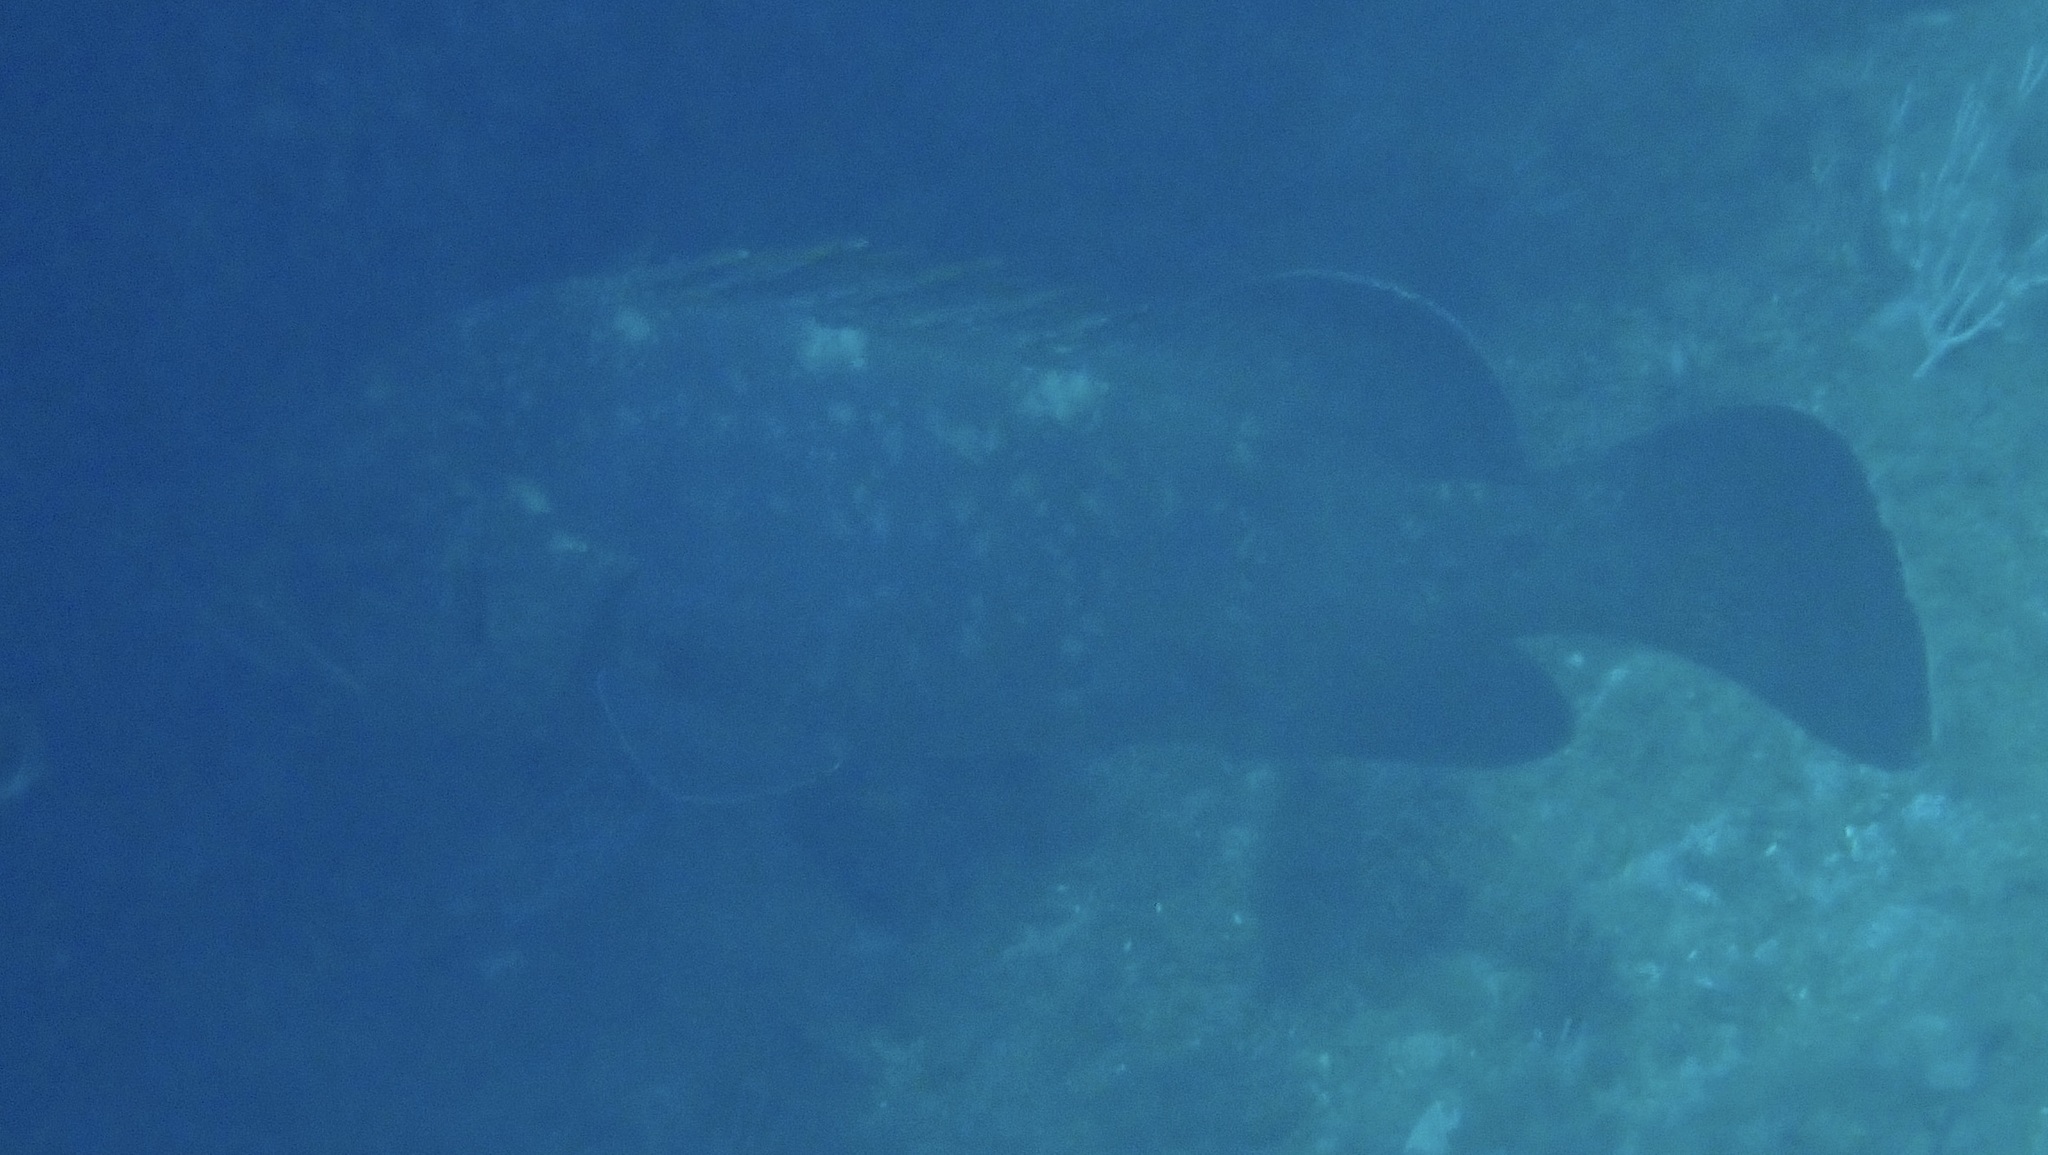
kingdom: Animalia
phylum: Chordata
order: Perciformes
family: Serranidae
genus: Epinephelus
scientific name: Epinephelus marginatus
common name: Dusky grouper
